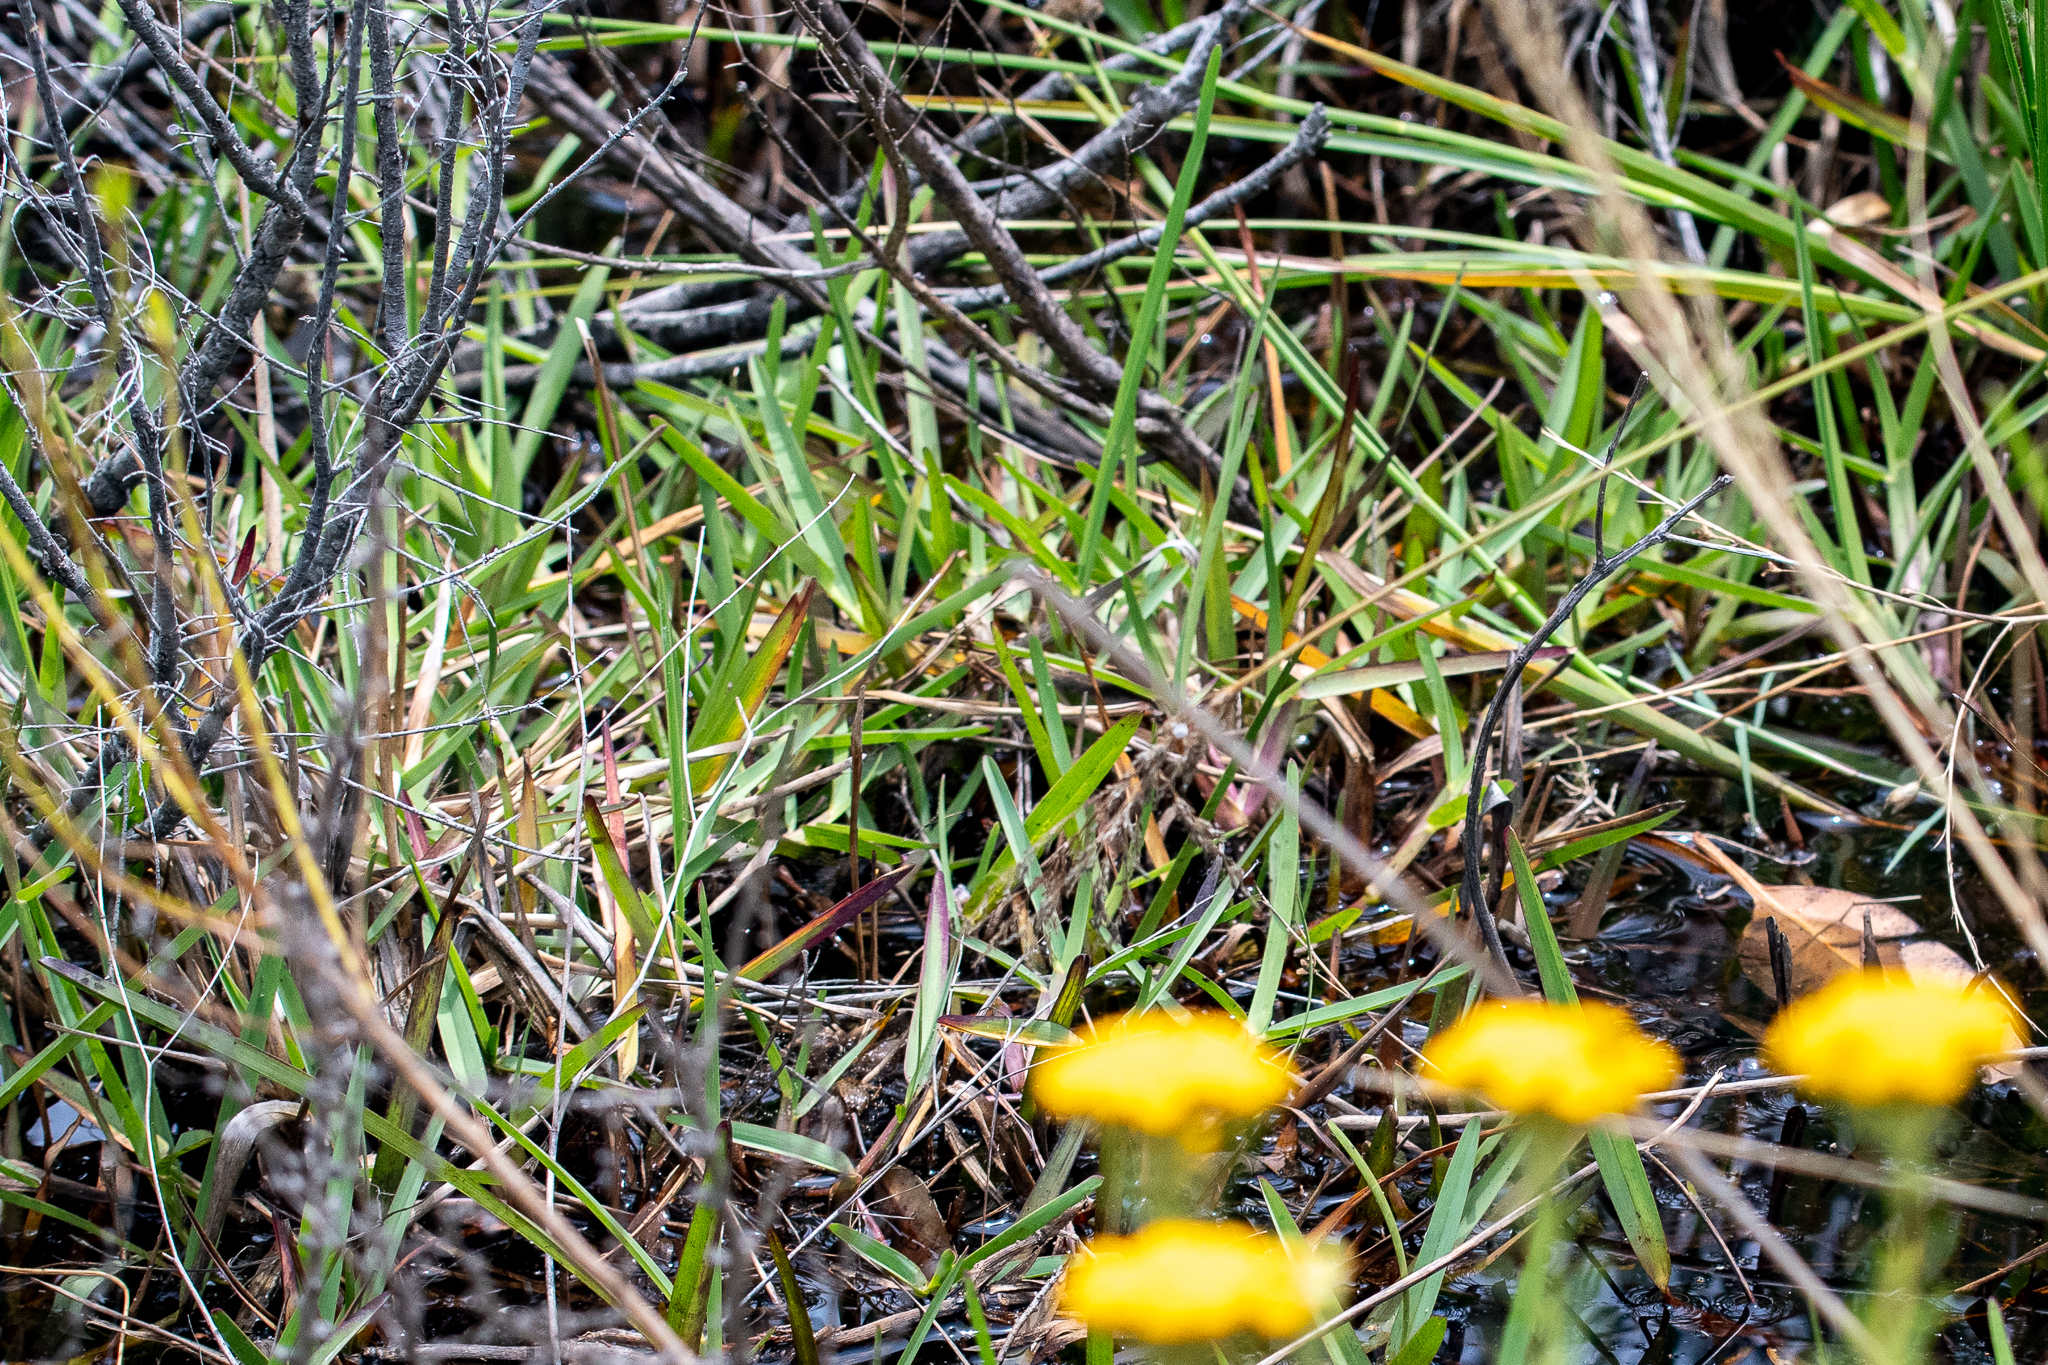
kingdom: Plantae
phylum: Tracheophyta
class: Liliopsida
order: Poales
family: Poaceae
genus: Stenotaphrum
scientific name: Stenotaphrum secundatum
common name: St. augustine grass
